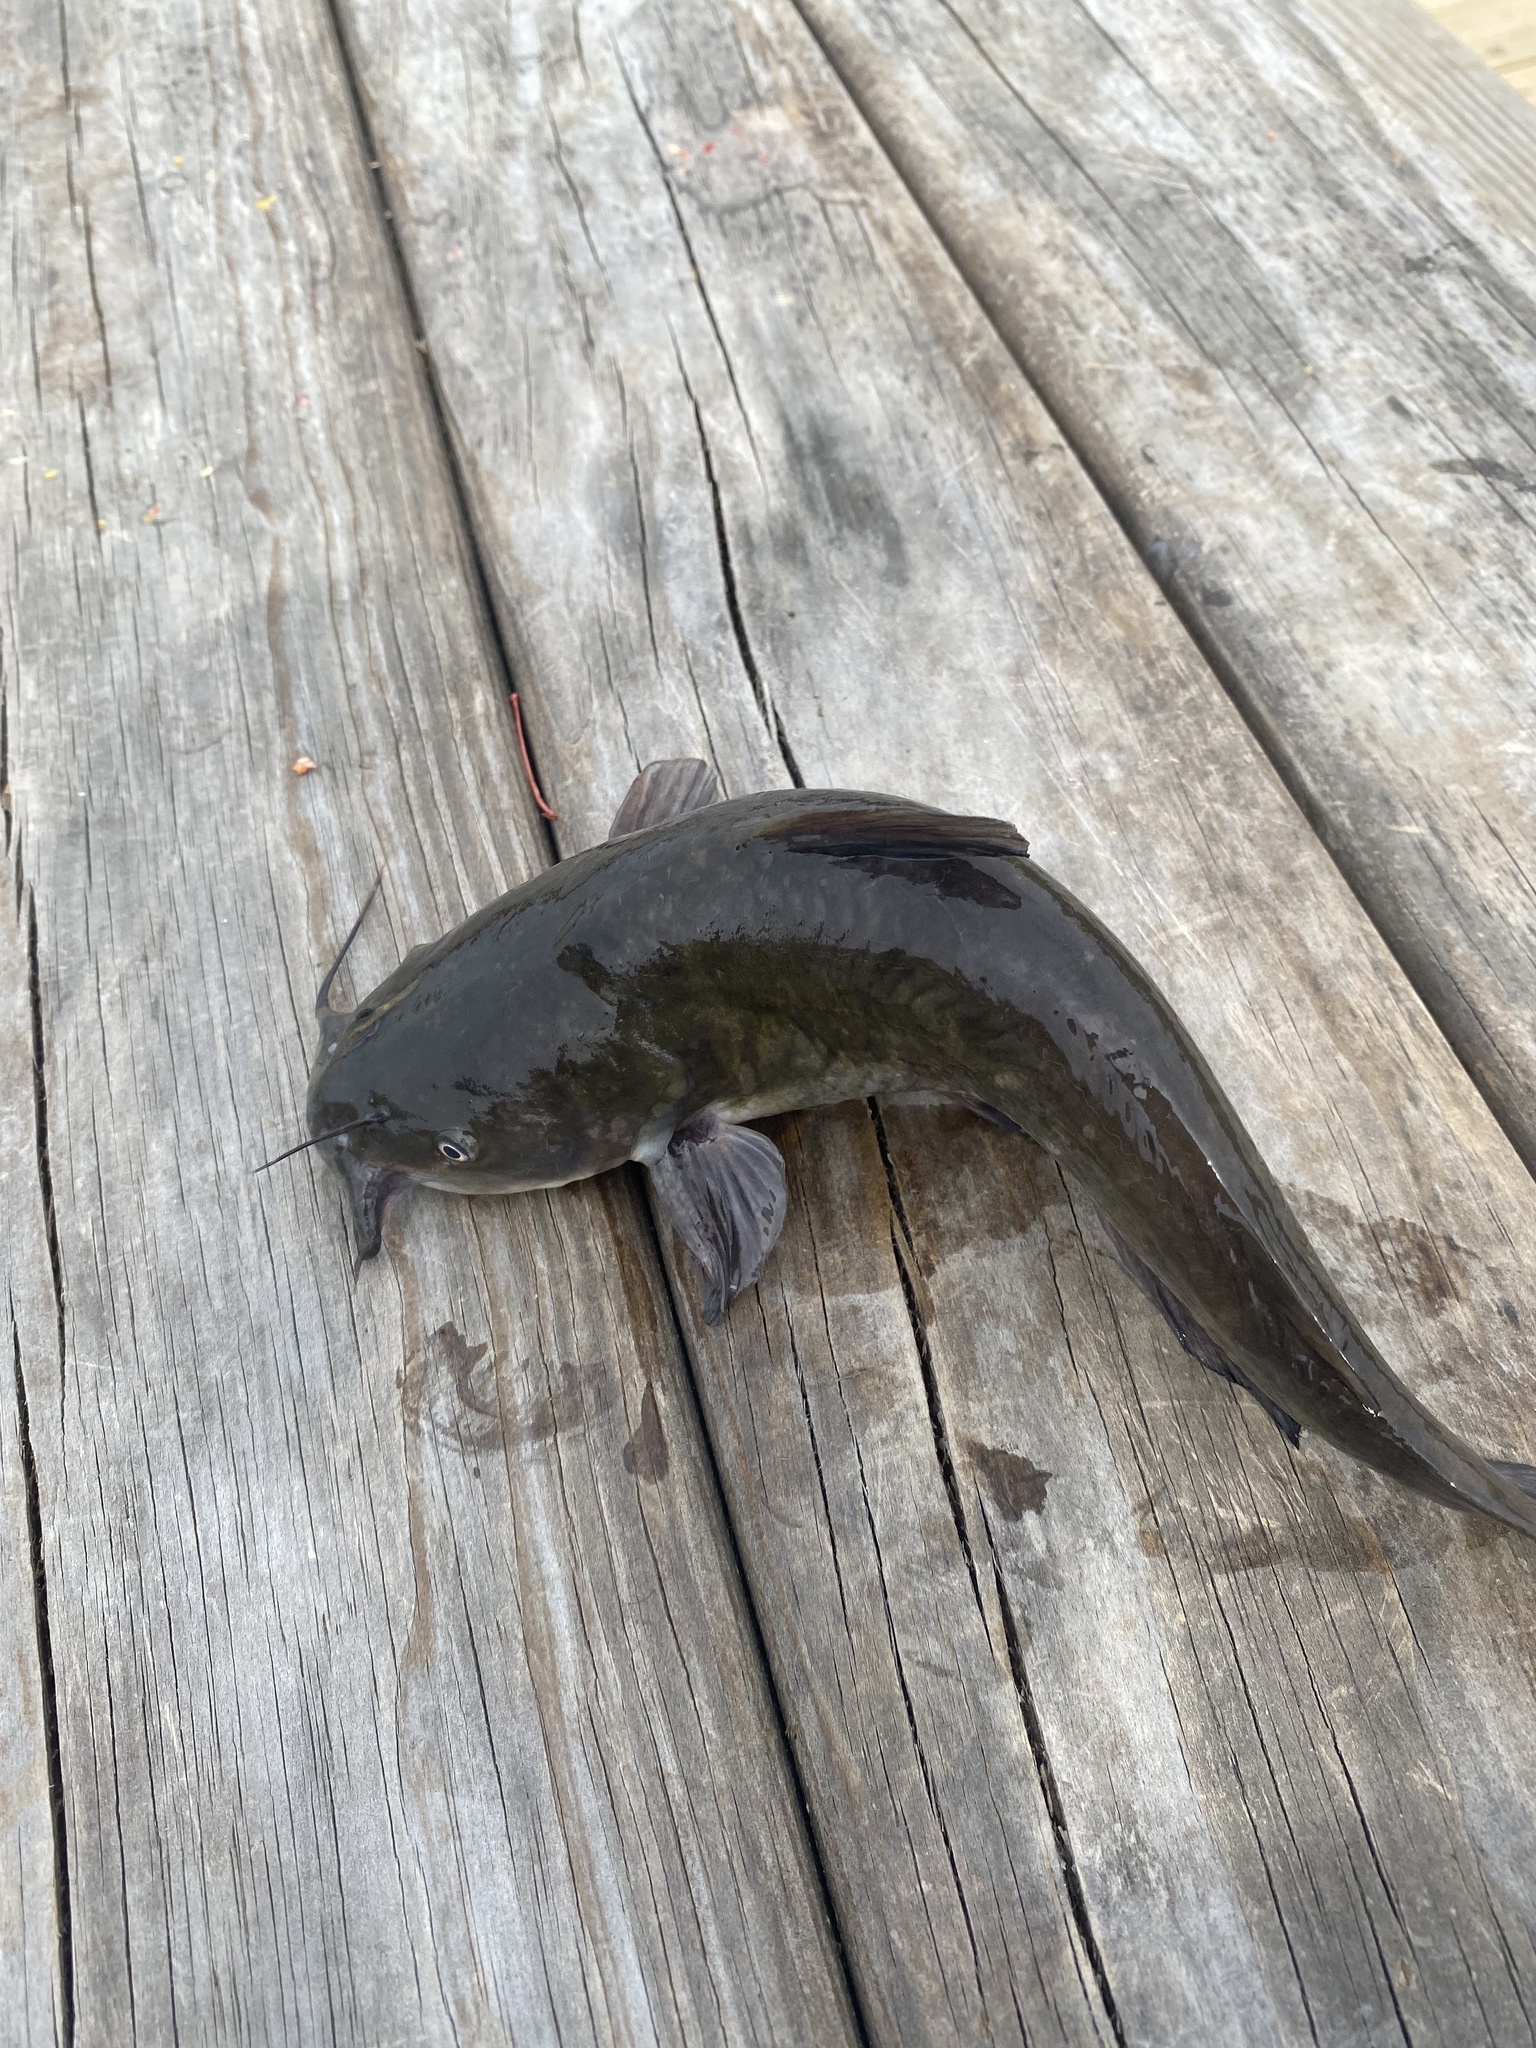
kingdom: Animalia
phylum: Chordata
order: Siluriformes
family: Ictaluridae
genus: Ameiurus
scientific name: Ameiurus nebulosus
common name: Brown bullhead
